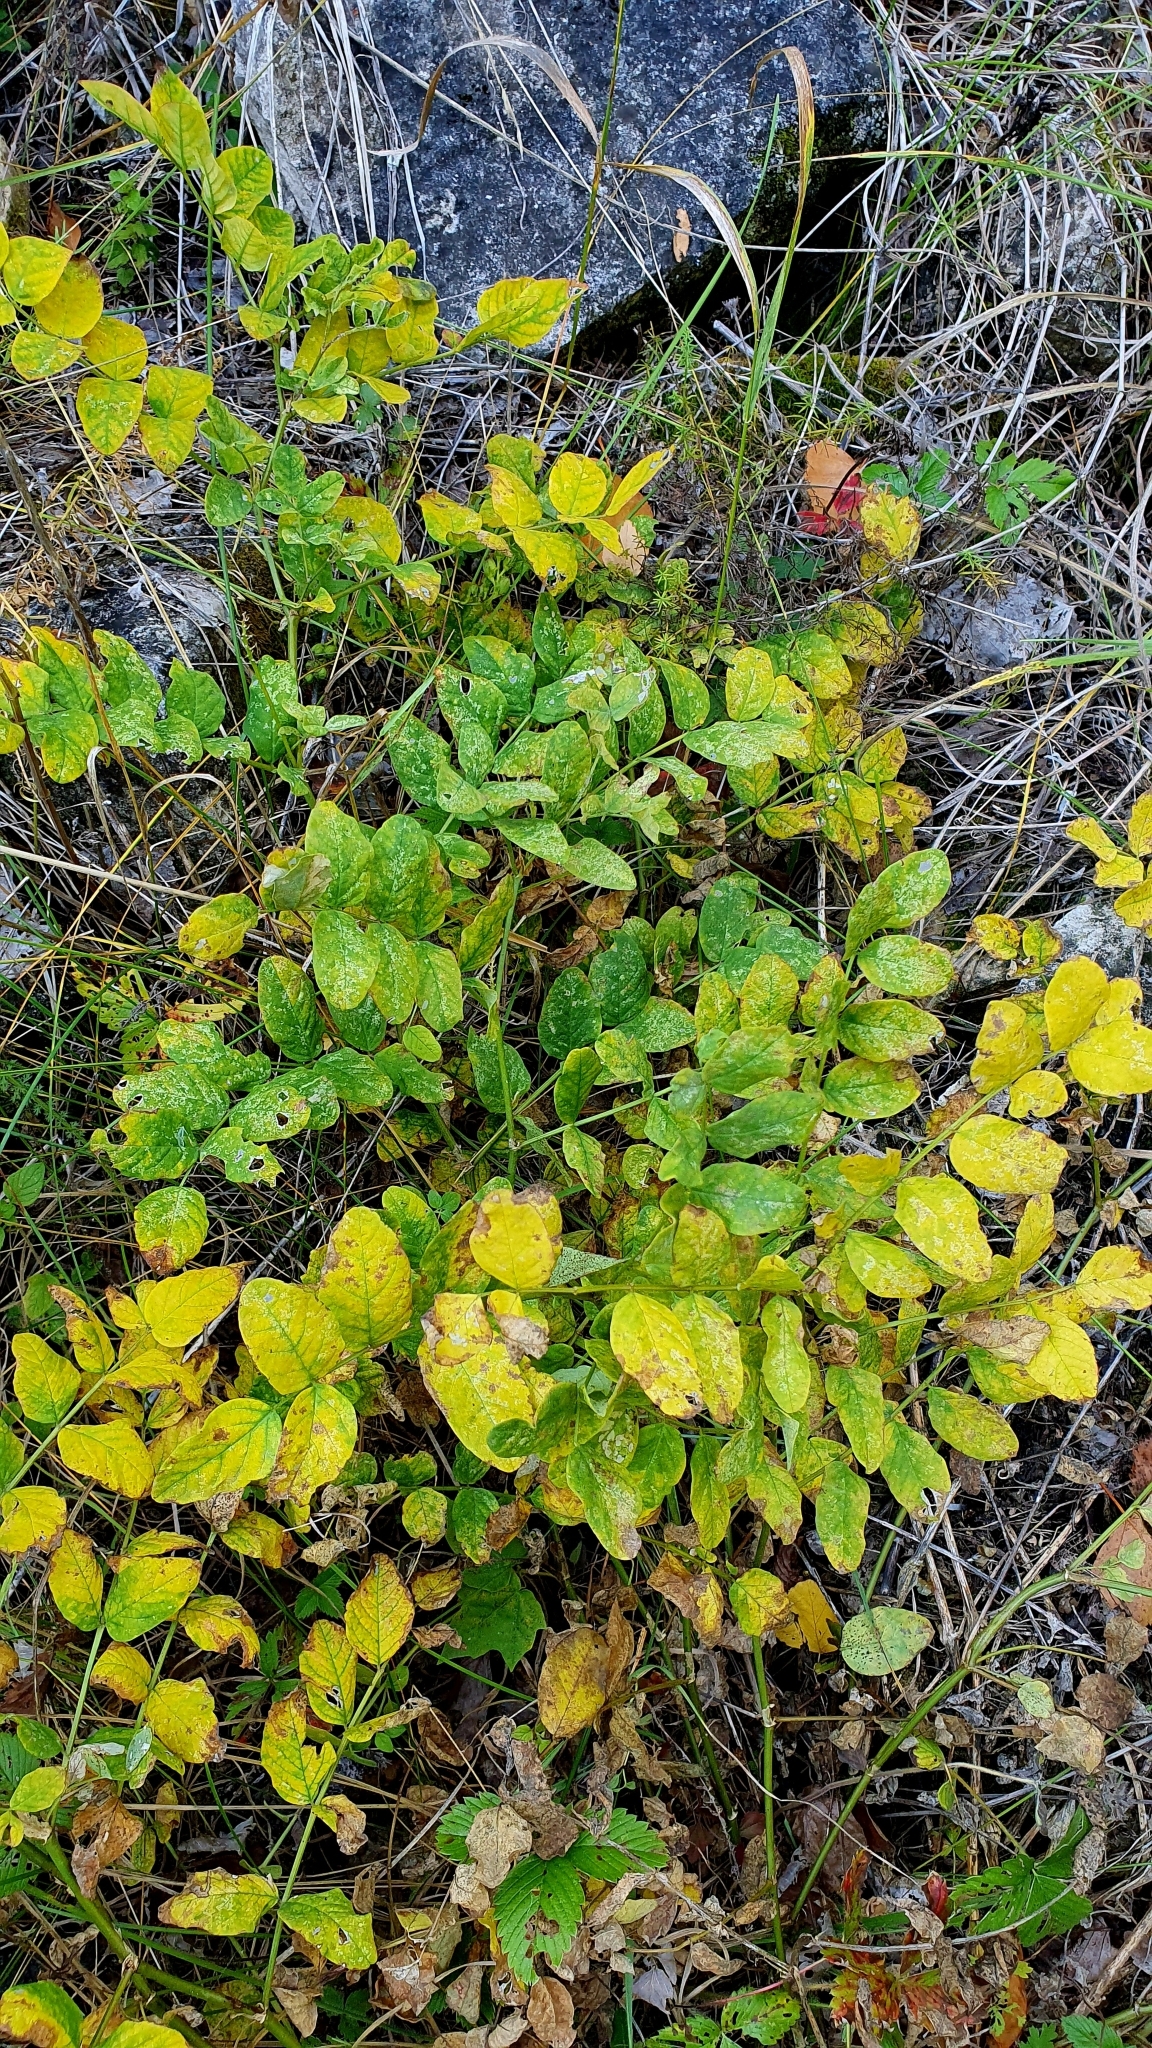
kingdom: Plantae
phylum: Tracheophyta
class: Magnoliopsida
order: Fabales
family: Fabaceae
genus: Astragalus
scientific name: Astragalus glycyphyllos
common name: Wild liquorice
